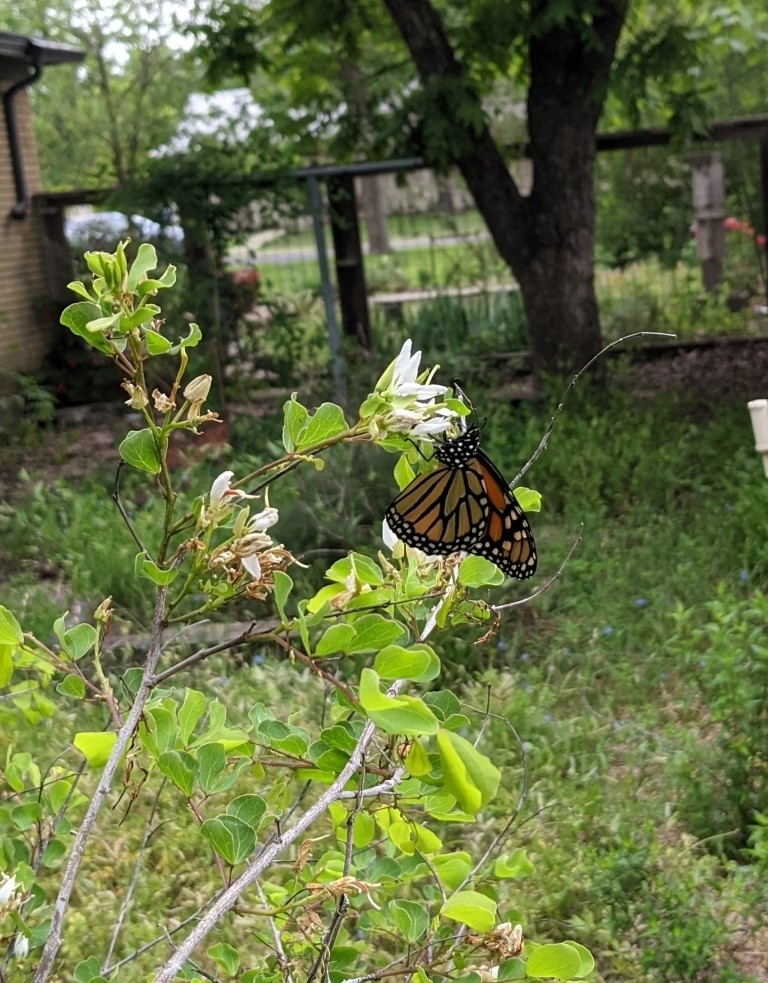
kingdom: Animalia
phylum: Arthropoda
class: Insecta
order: Lepidoptera
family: Nymphalidae
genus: Danaus
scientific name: Danaus plexippus
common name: Monarch
